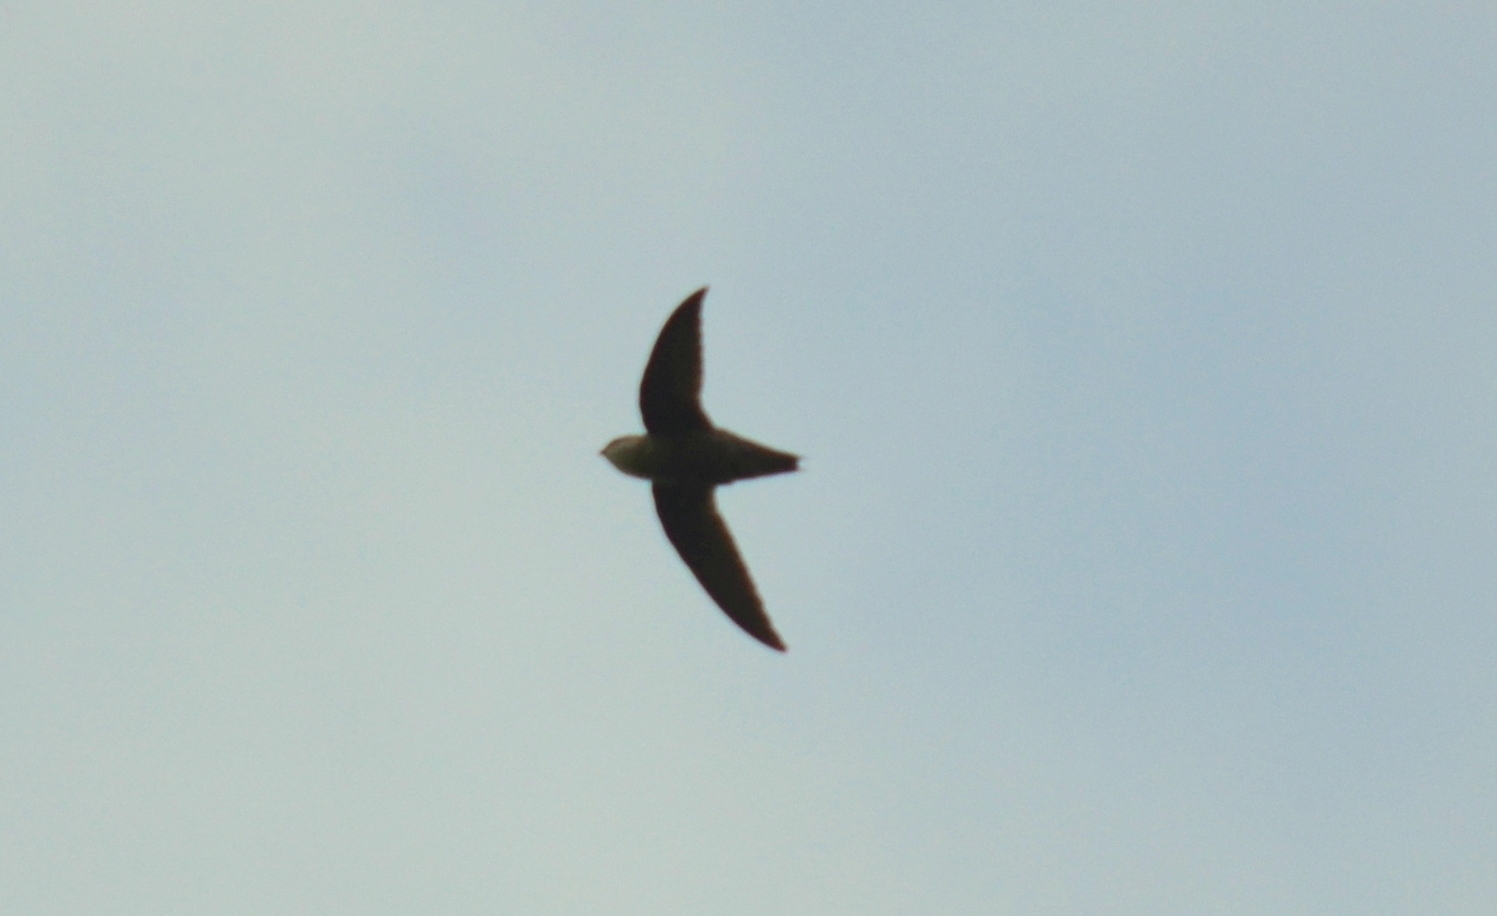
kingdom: Animalia
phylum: Chordata
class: Aves
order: Apodiformes
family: Apodidae
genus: Chaetura
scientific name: Chaetura pelagica
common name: Chimney swift
